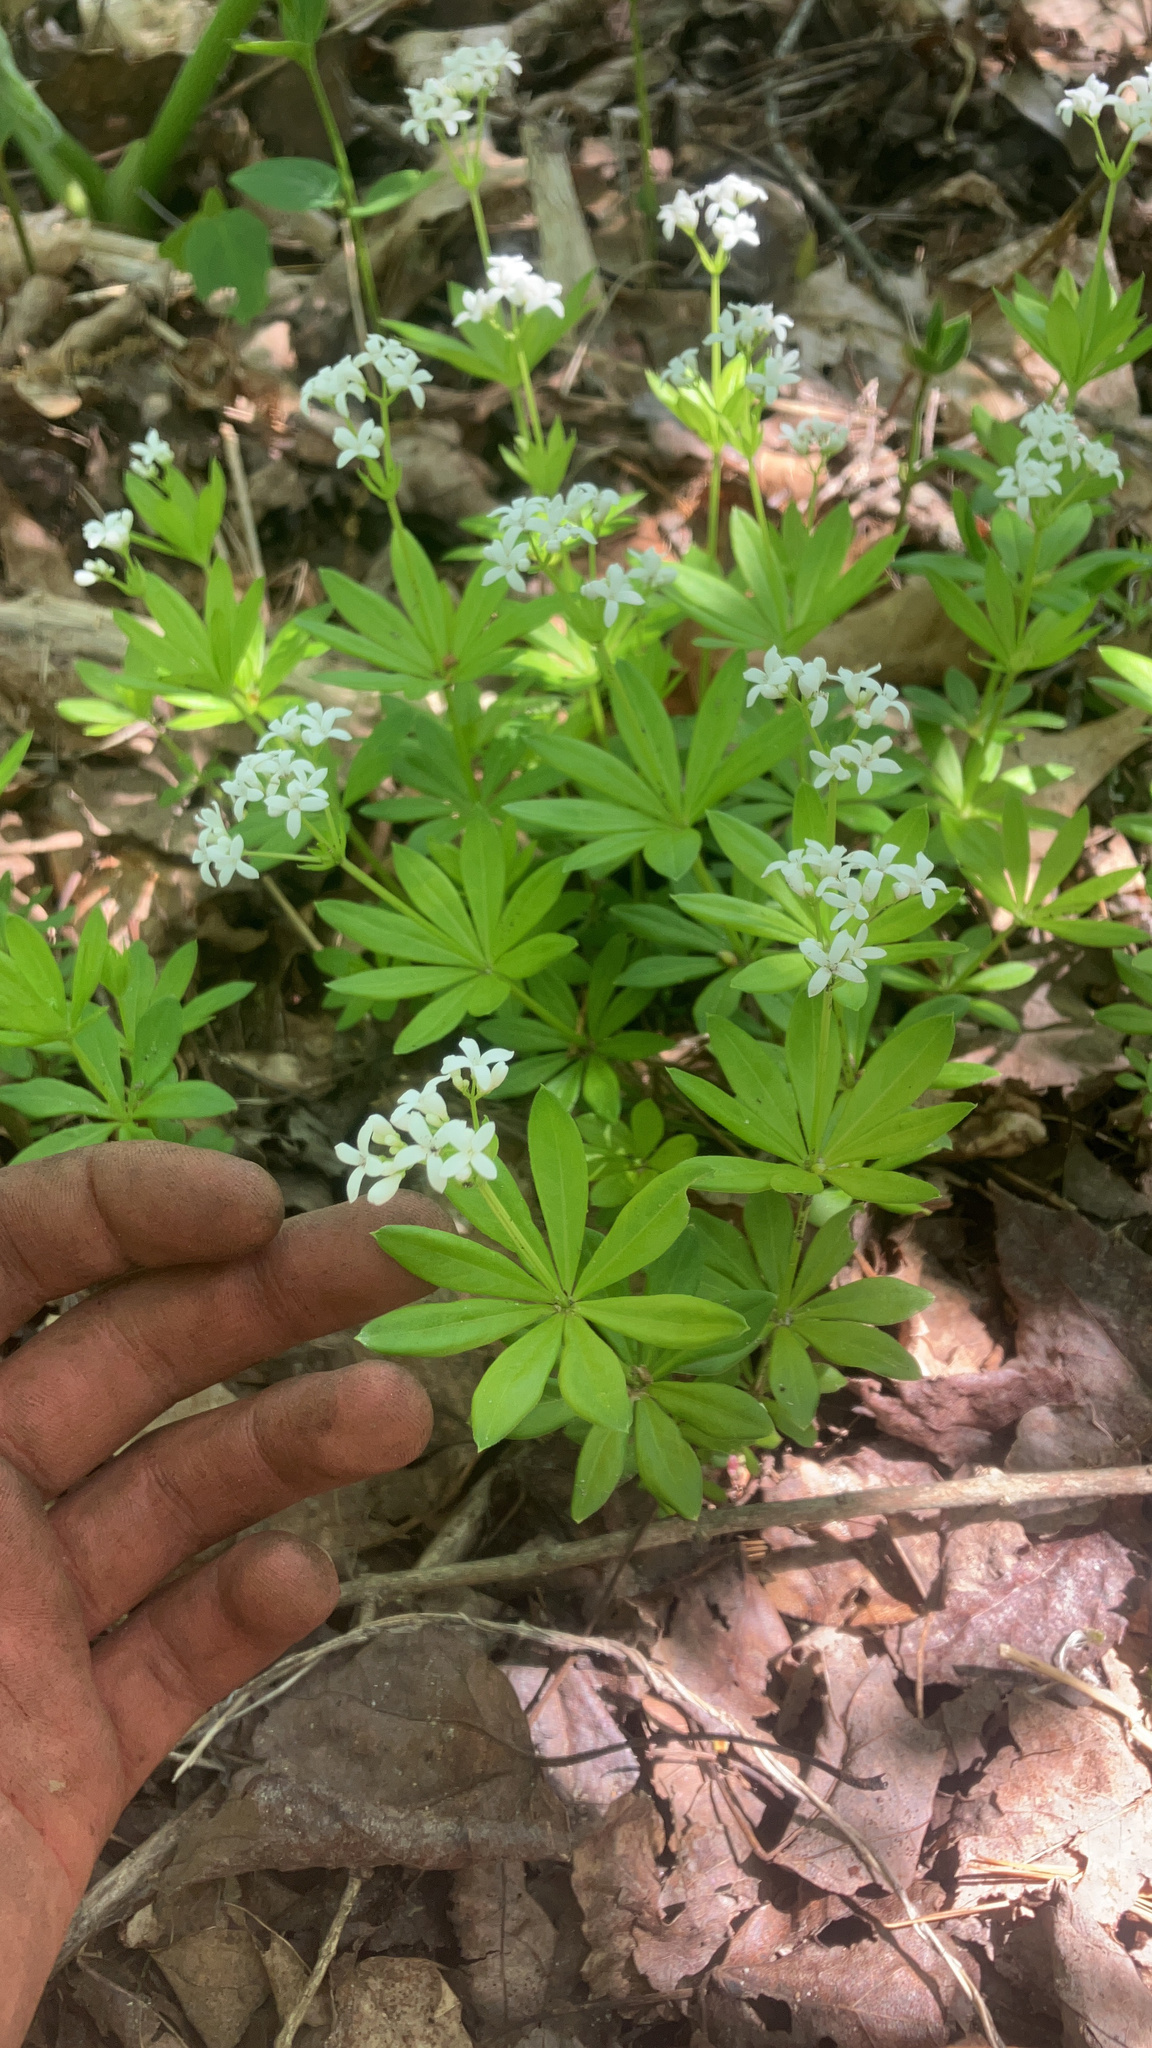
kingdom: Plantae
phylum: Tracheophyta
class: Magnoliopsida
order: Gentianales
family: Rubiaceae
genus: Galium
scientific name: Galium odoratum
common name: Sweet woodruff
